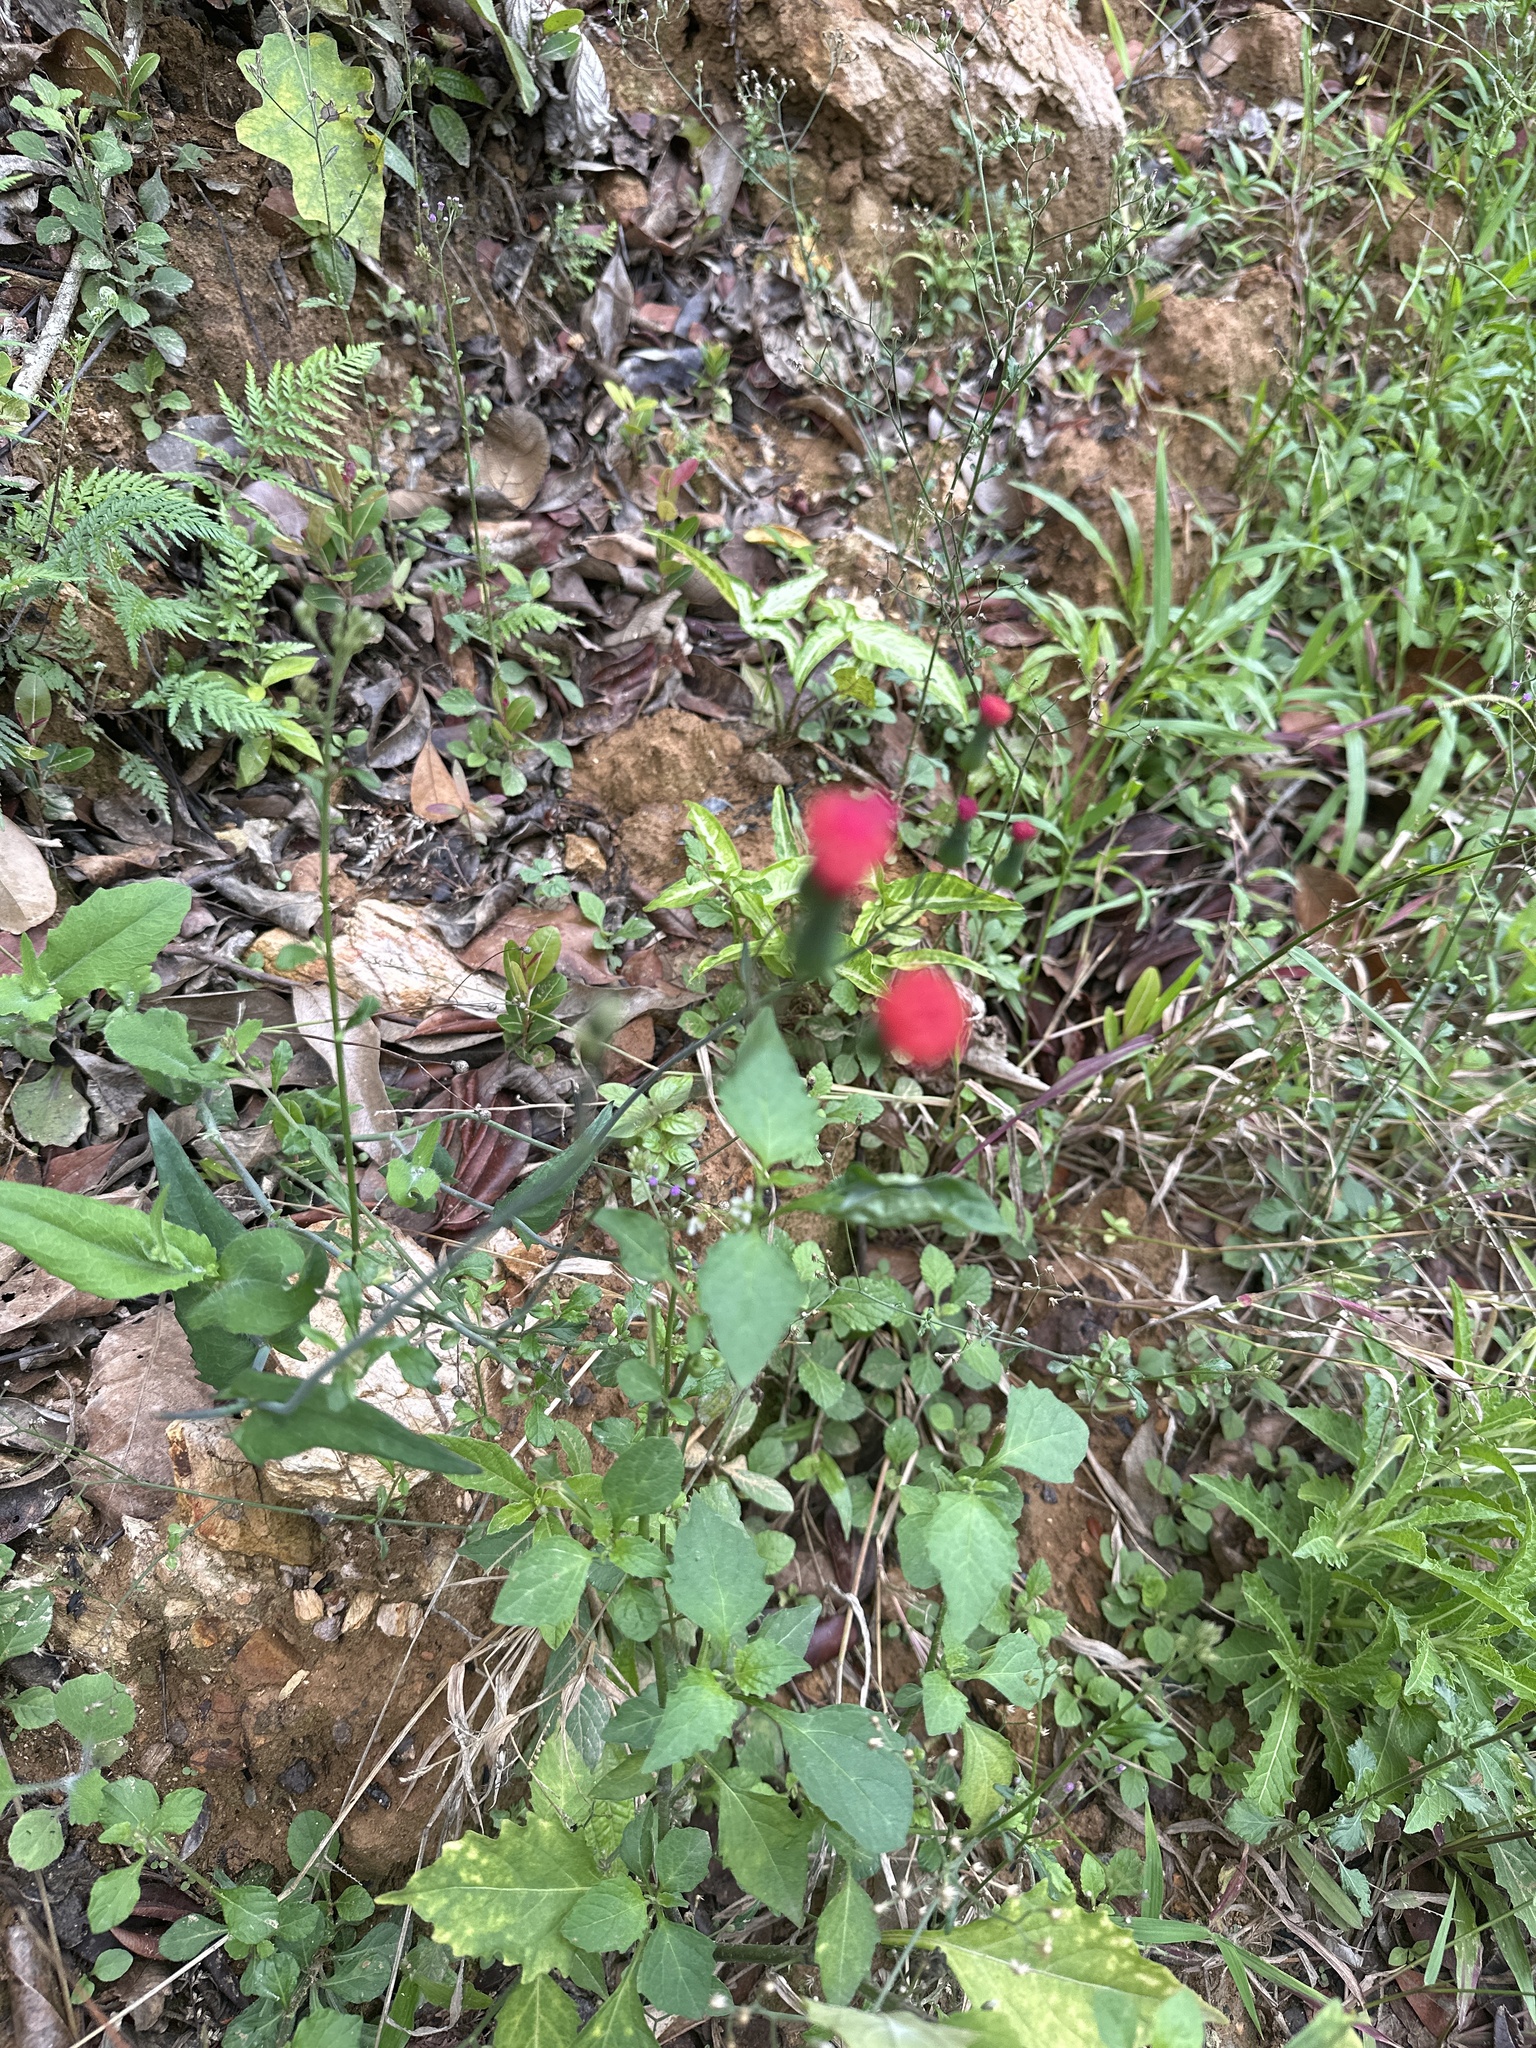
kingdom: Plantae
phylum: Tracheophyta
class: Magnoliopsida
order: Asterales
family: Asteraceae
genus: Emilia
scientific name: Emilia fosbergii
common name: Florida tasselflower
